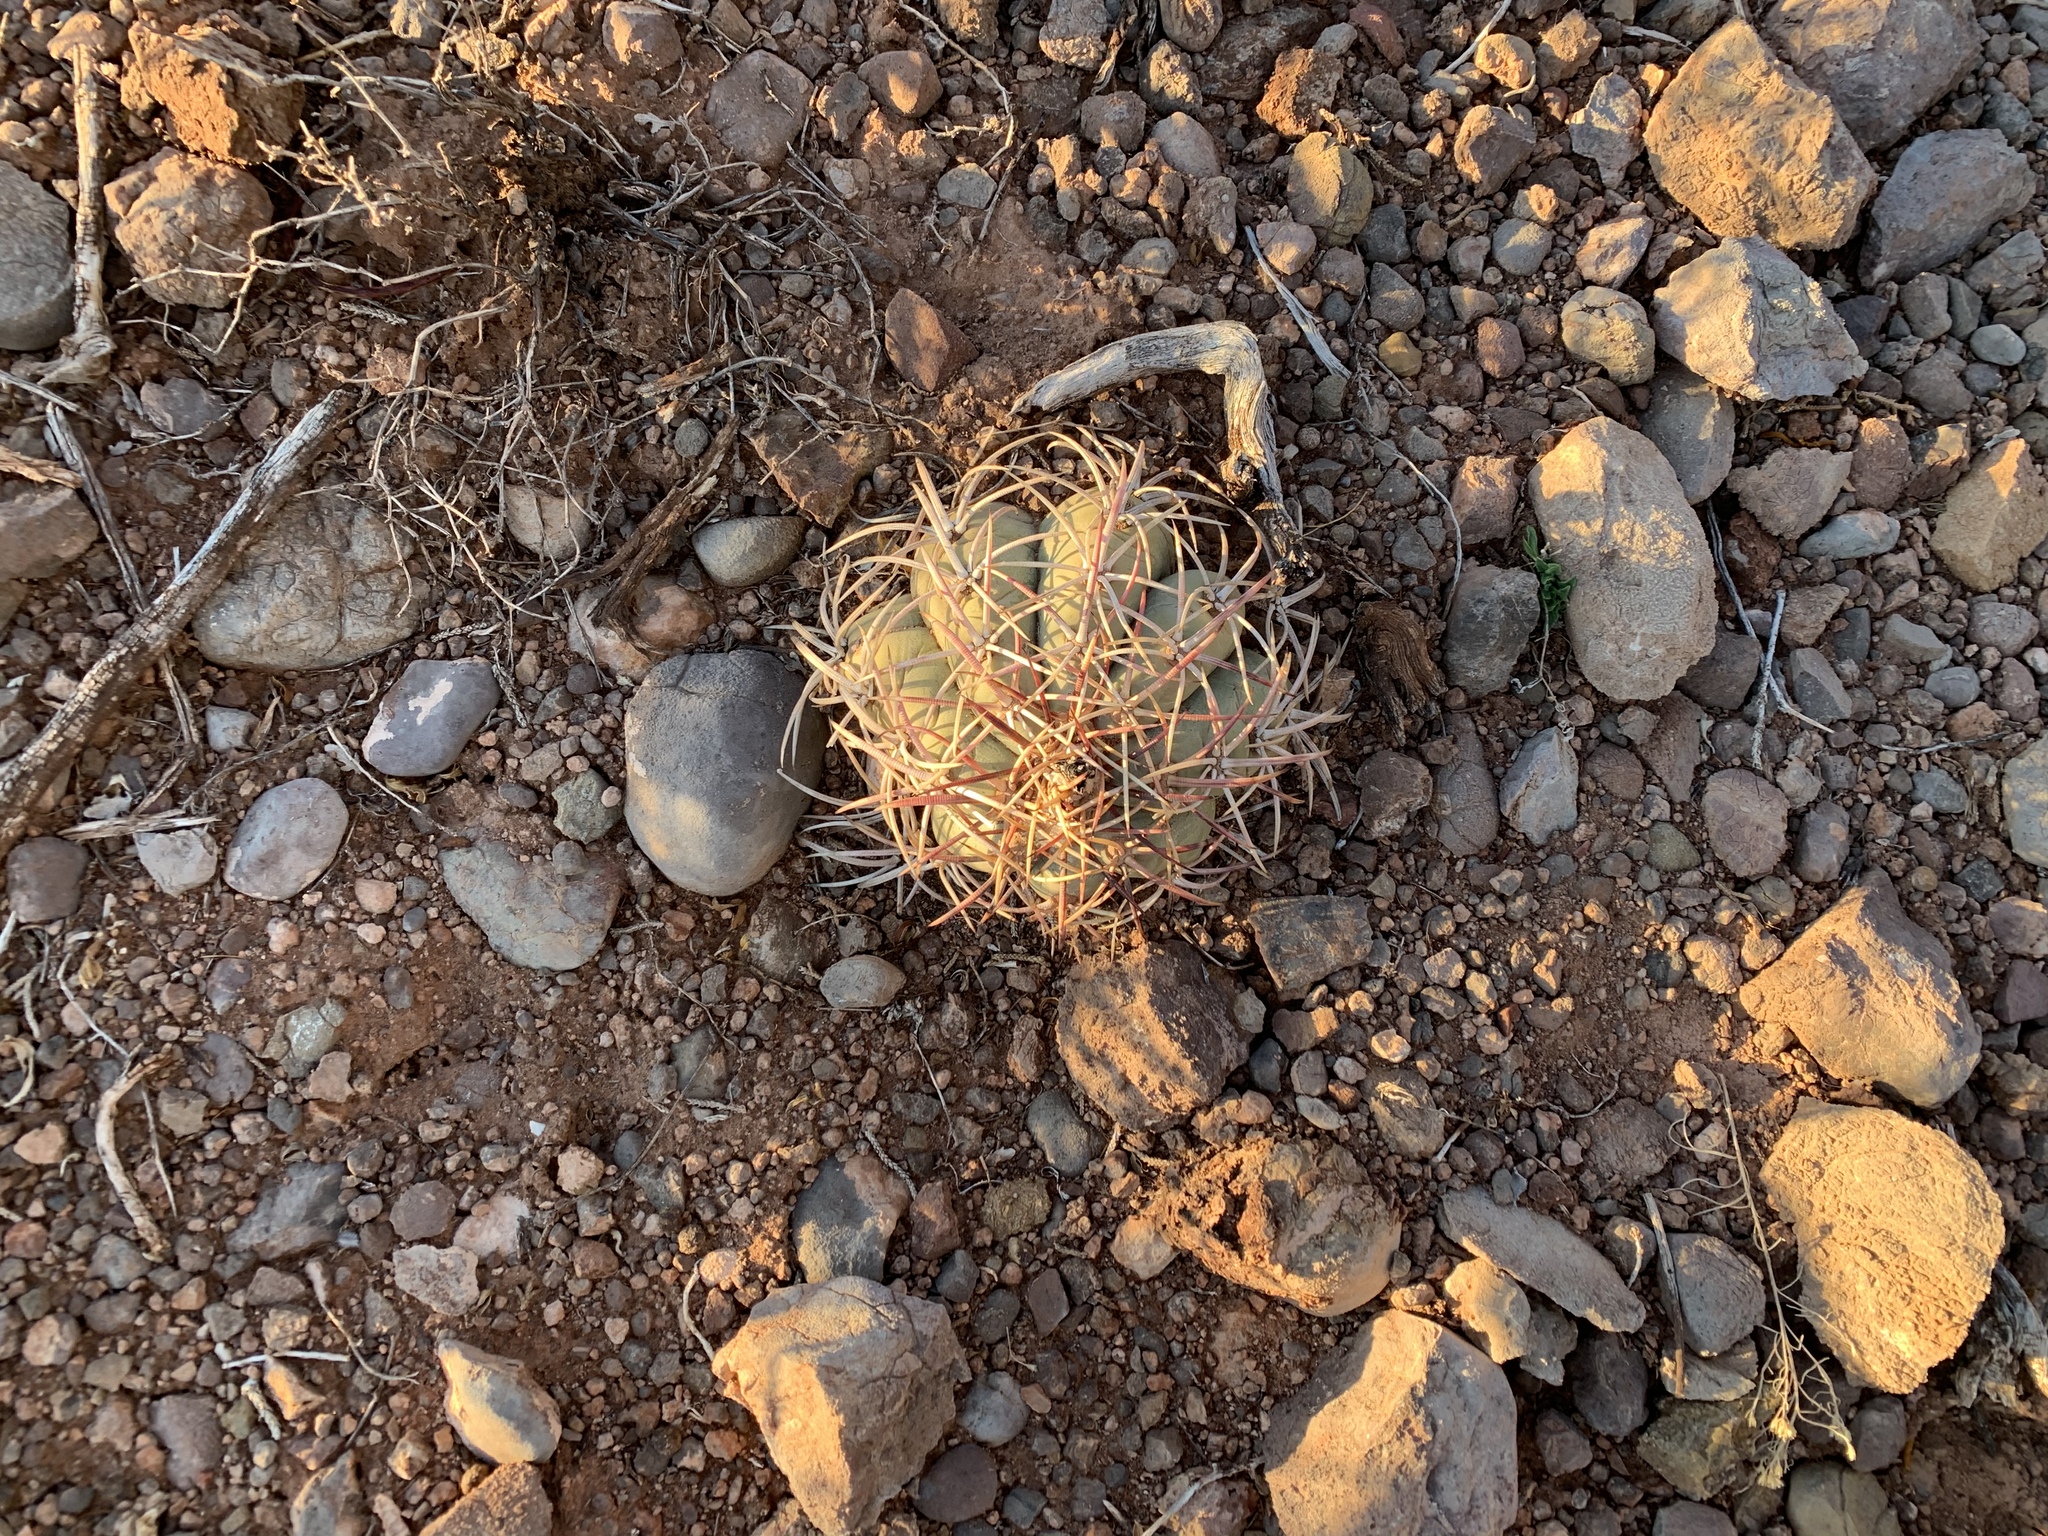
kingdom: Plantae
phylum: Tracheophyta
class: Magnoliopsida
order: Caryophyllales
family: Cactaceae
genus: Echinocactus
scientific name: Echinocactus horizonthalonius
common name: Devilshead
